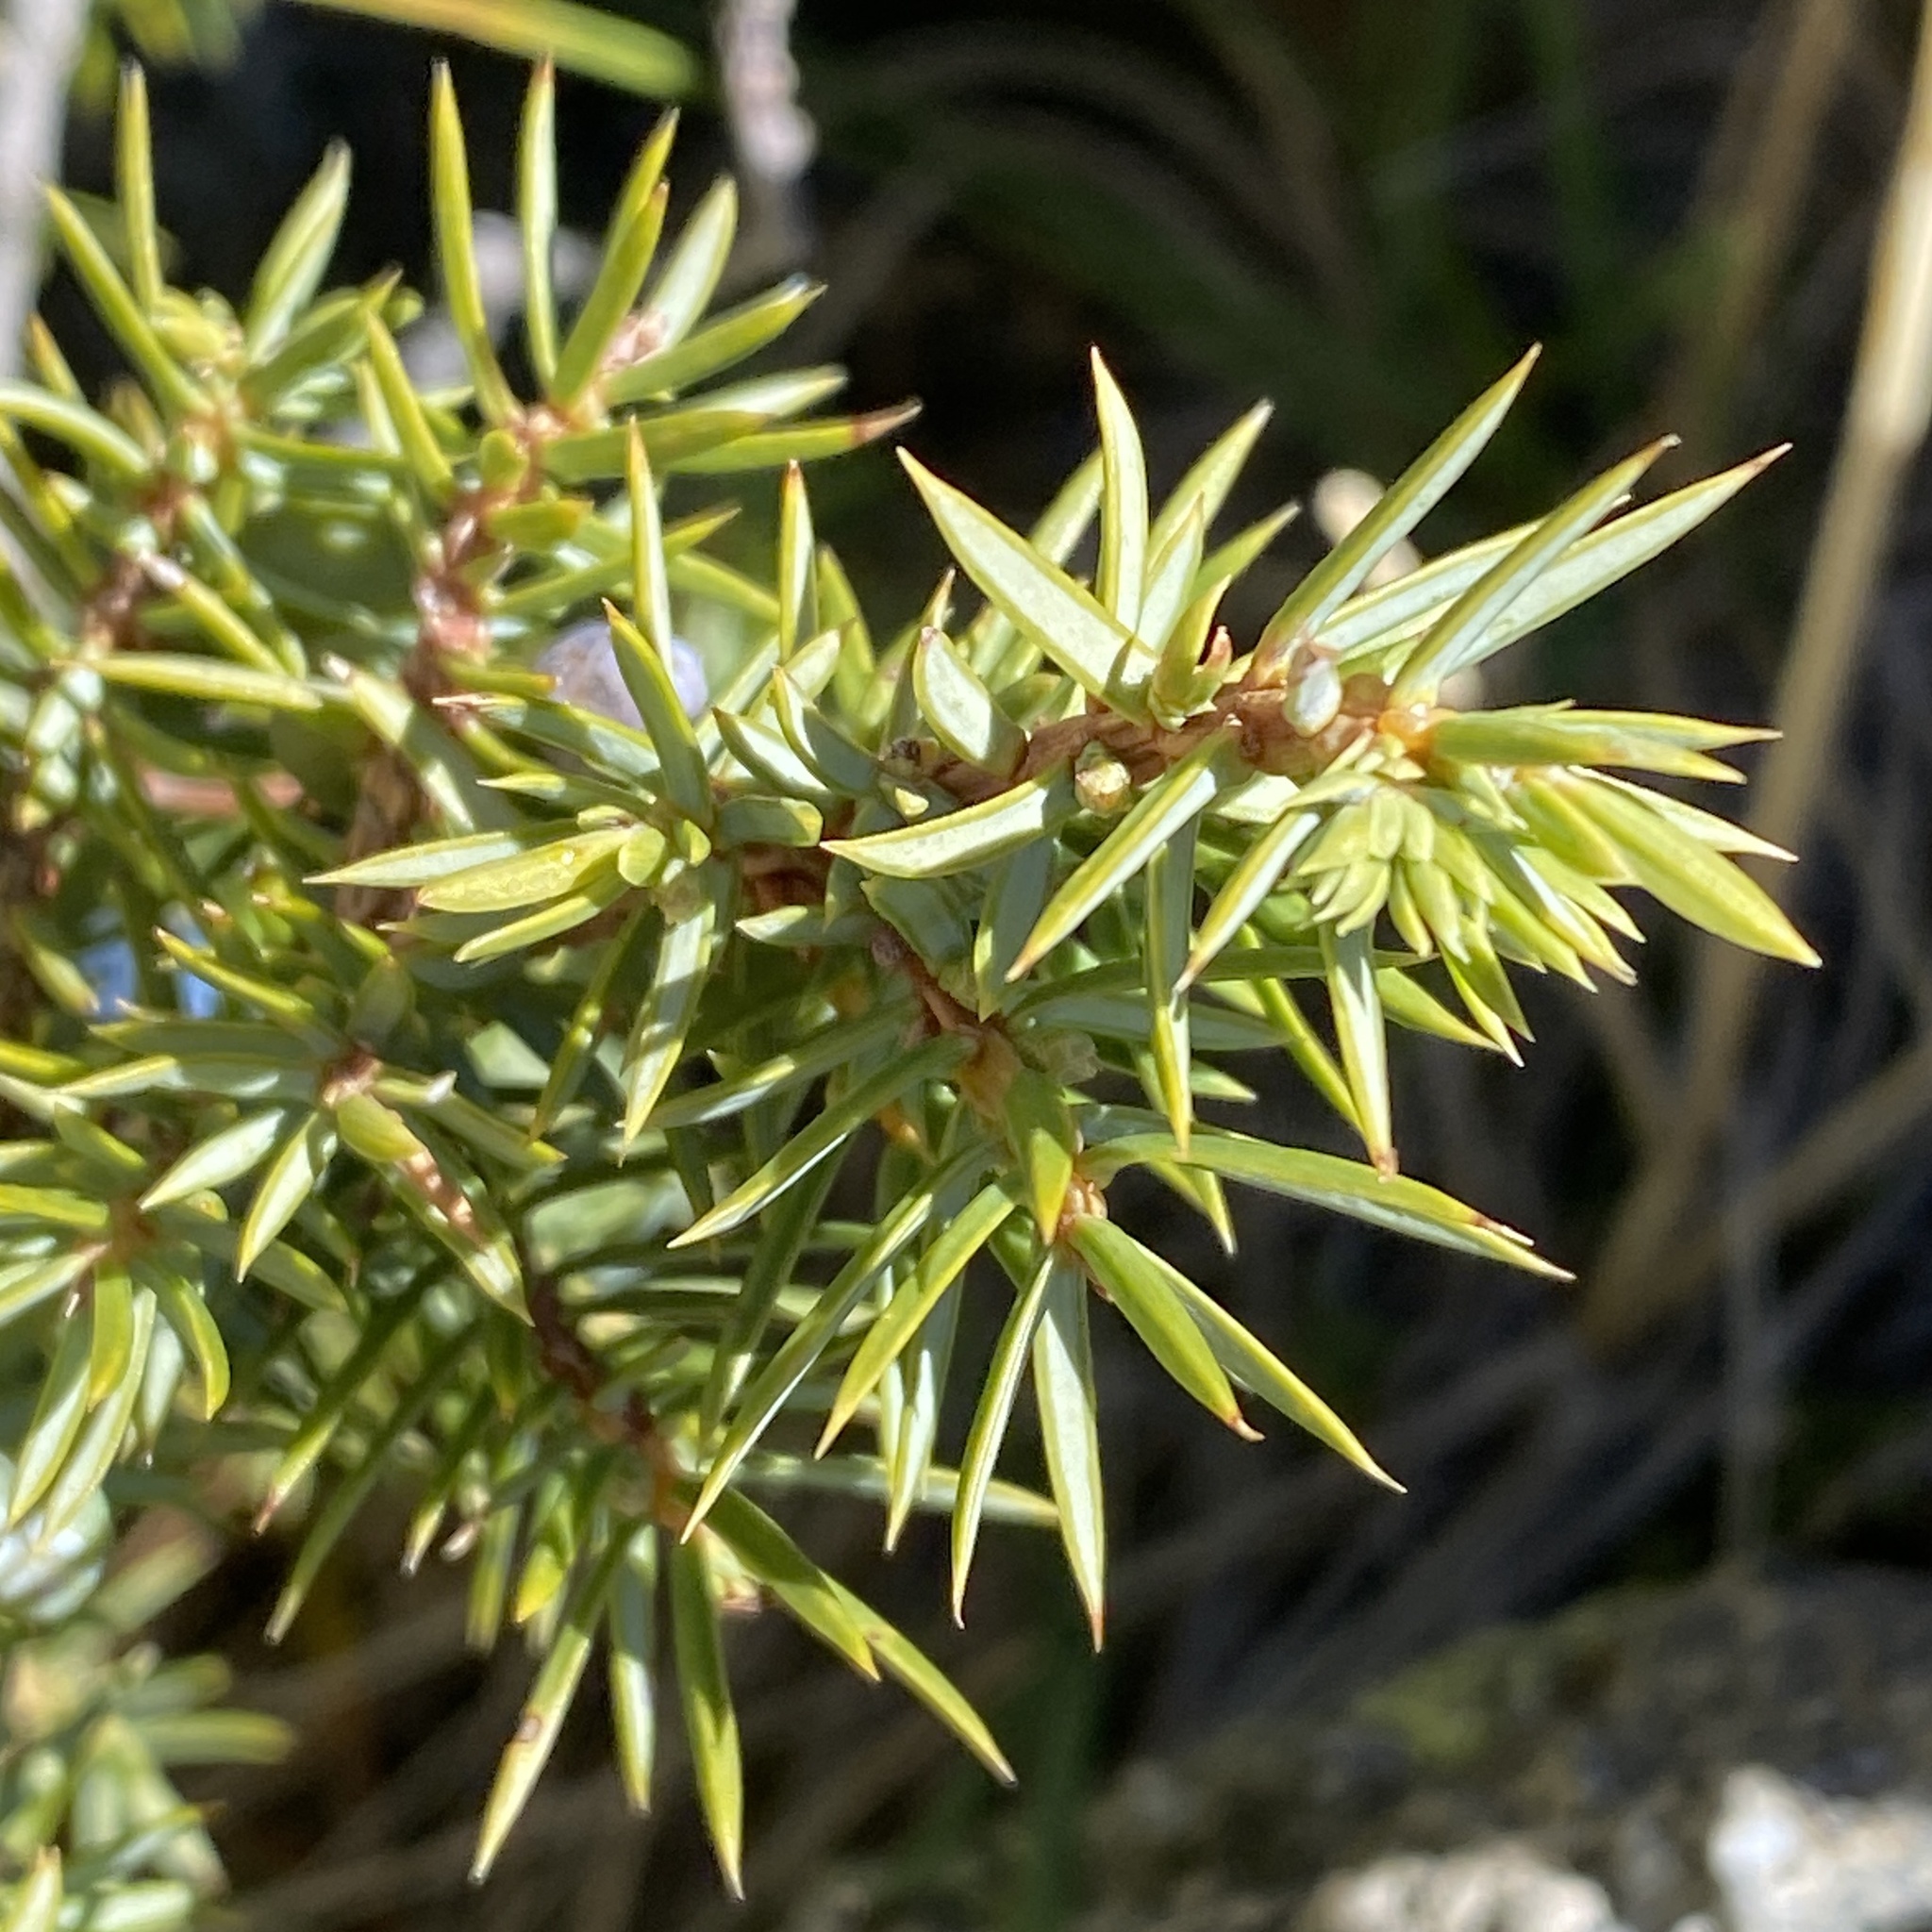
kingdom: Plantae
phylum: Tracheophyta
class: Pinopsida
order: Pinales
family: Cupressaceae
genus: Juniperus
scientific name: Juniperus communis
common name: Common juniper
